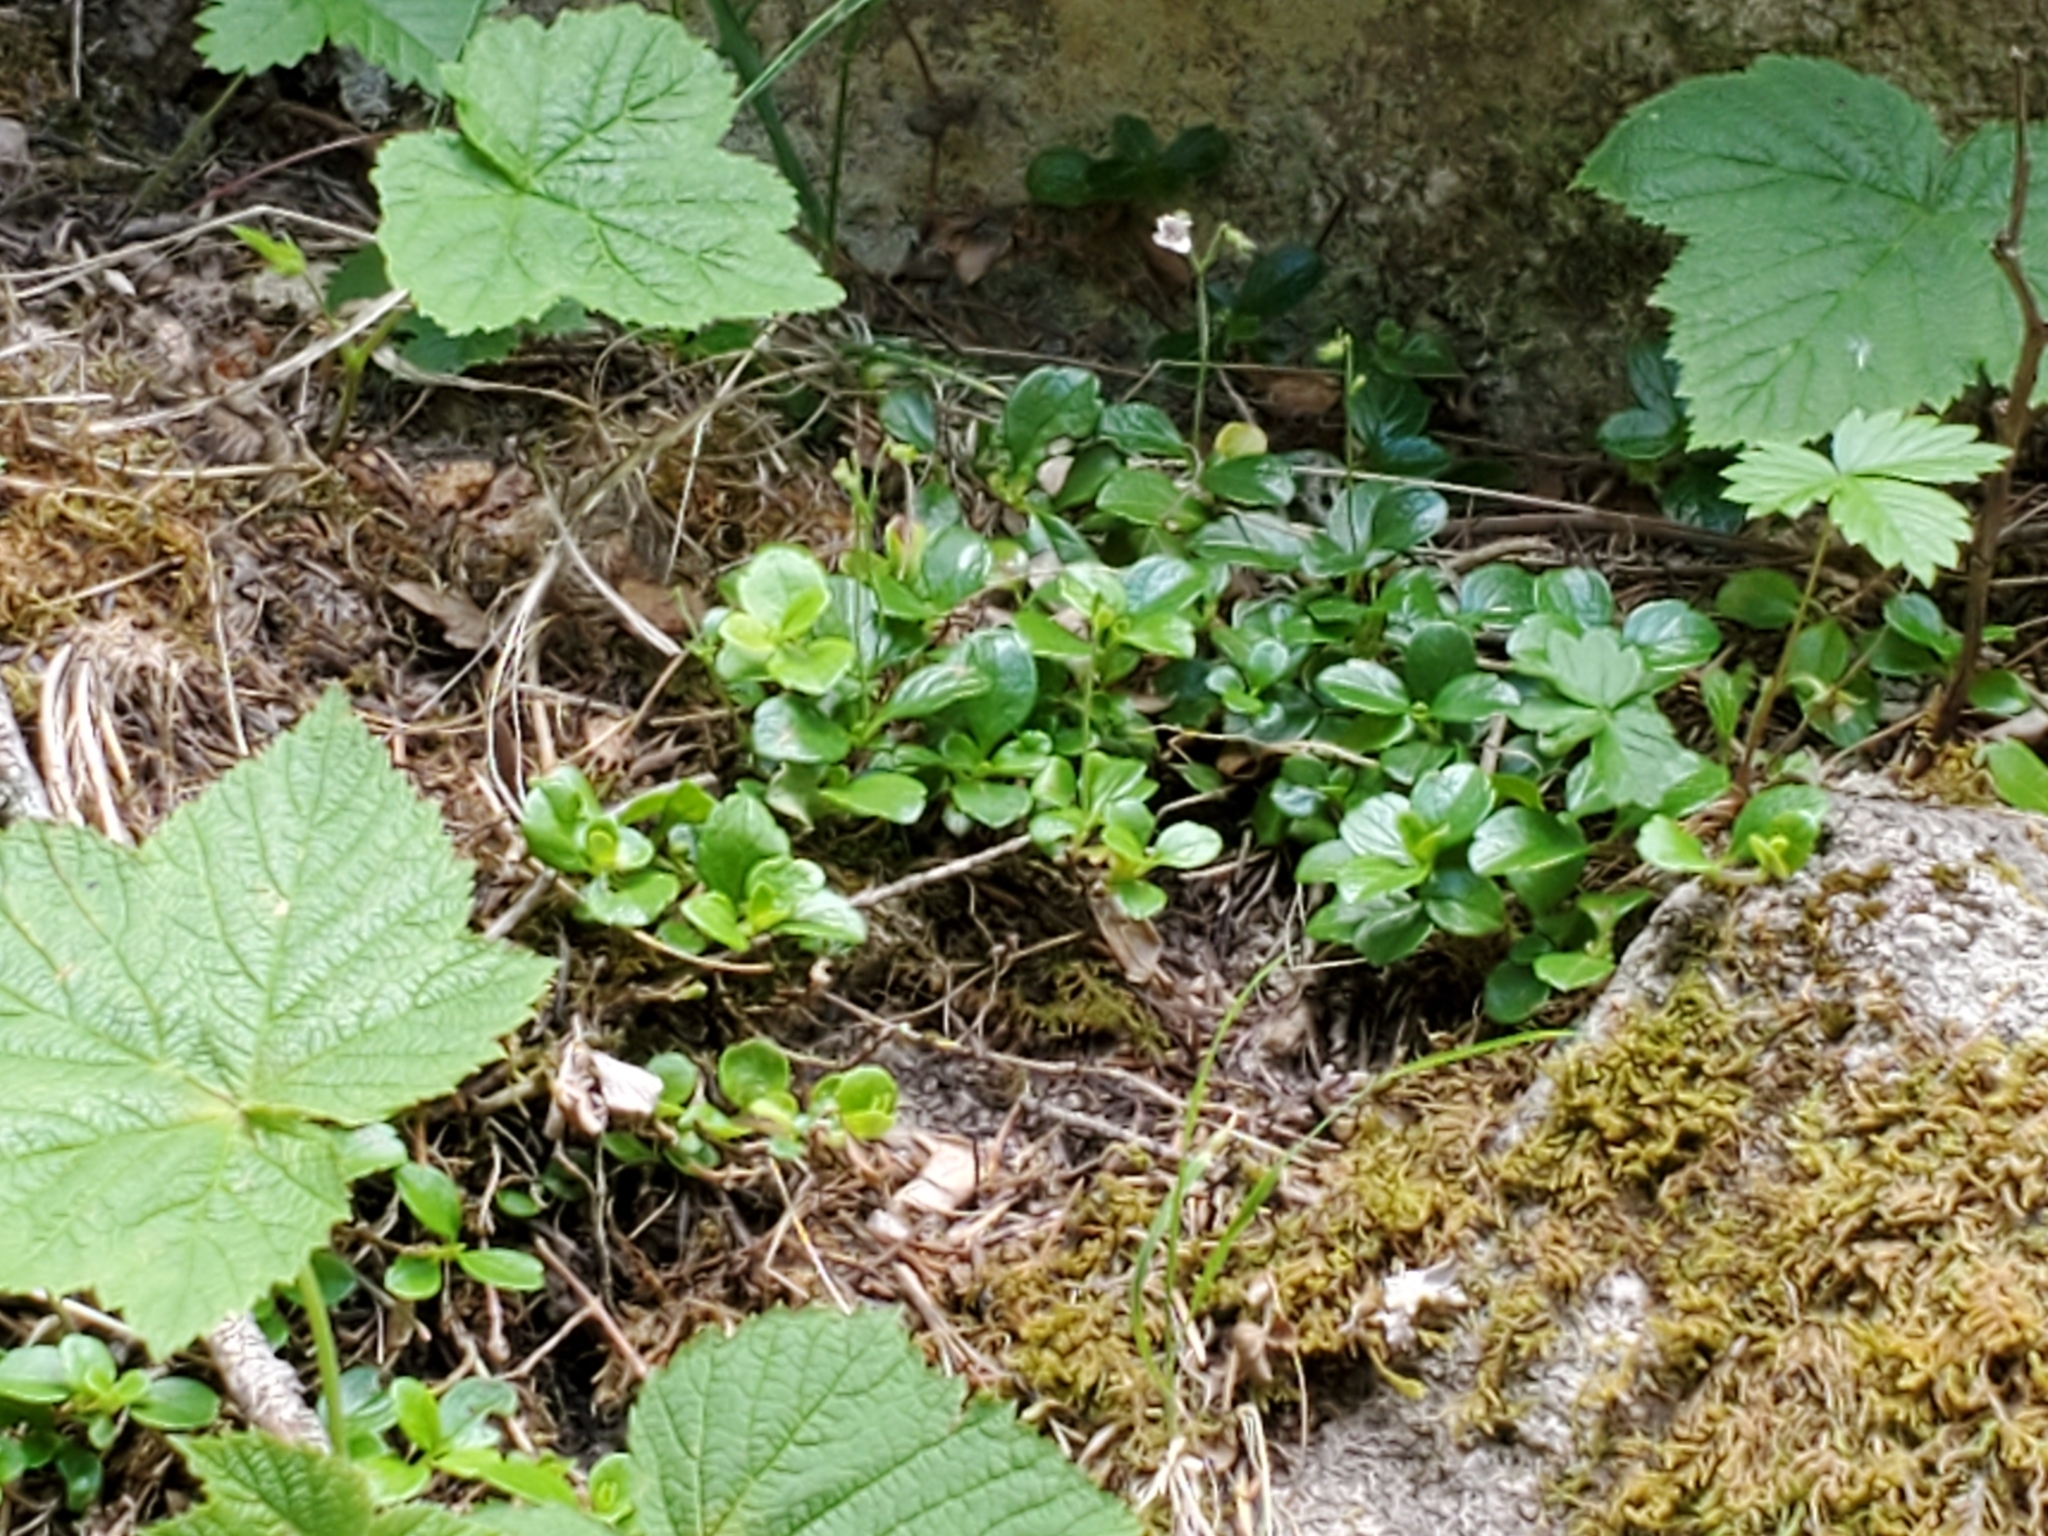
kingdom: Plantae
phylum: Tracheophyta
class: Magnoliopsida
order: Dipsacales
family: Caprifoliaceae
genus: Linnaea
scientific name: Linnaea borealis
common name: Twinflower
